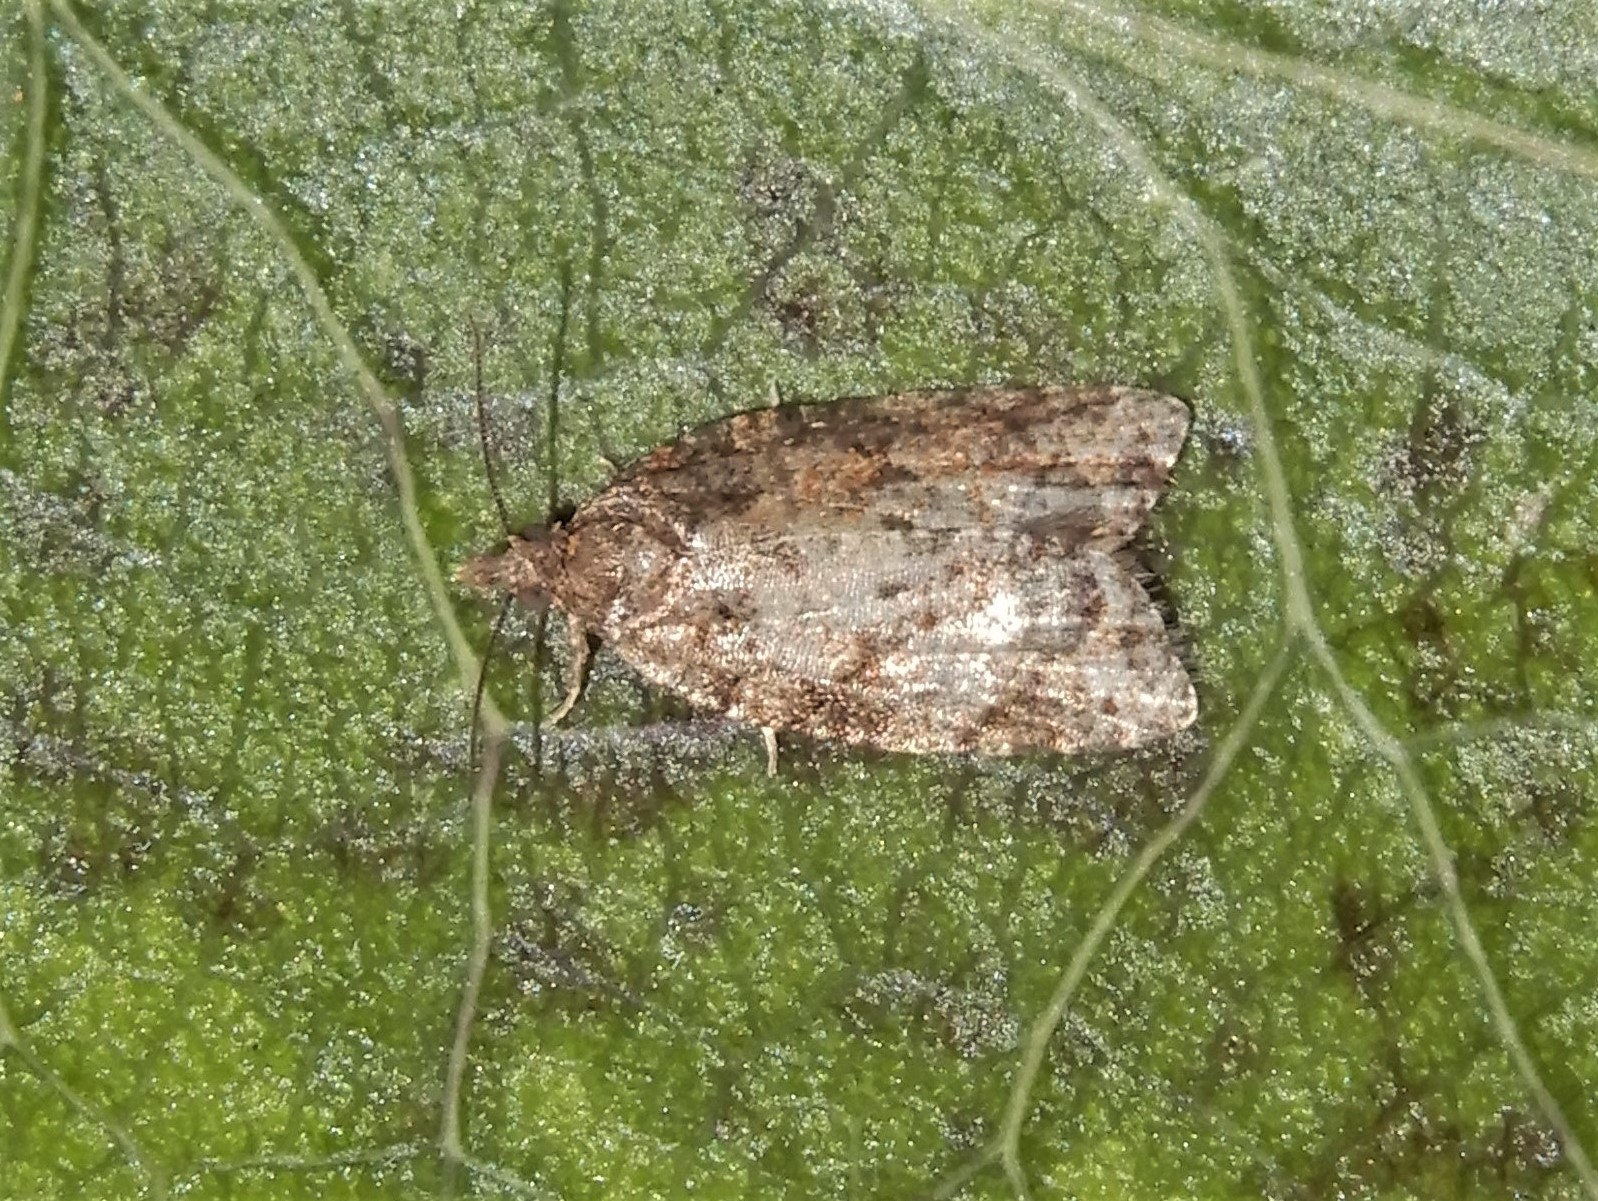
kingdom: Animalia
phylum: Arthropoda
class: Insecta
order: Lepidoptera
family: Tortricidae
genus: Capua
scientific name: Capua intractana
